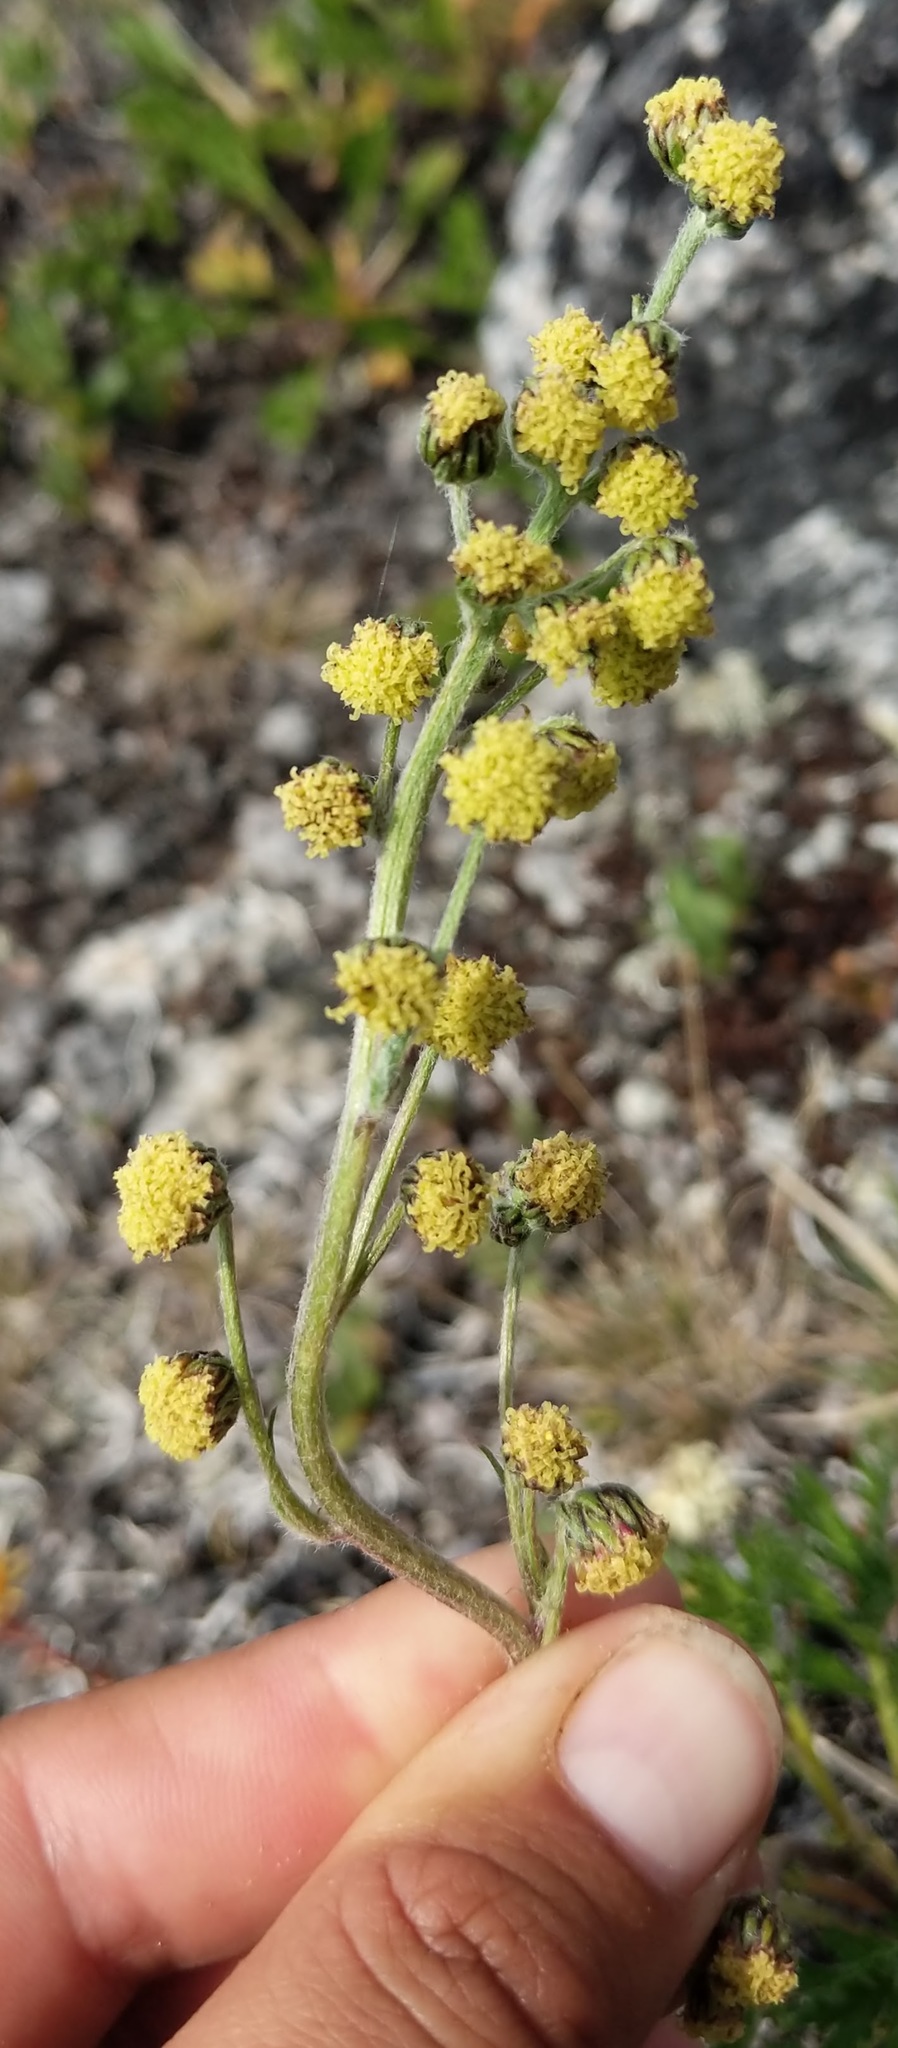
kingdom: Plantae
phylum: Tracheophyta
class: Magnoliopsida
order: Asterales
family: Asteraceae
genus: Artemisia
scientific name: Artemisia norvegica
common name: Norwegian mugwort
